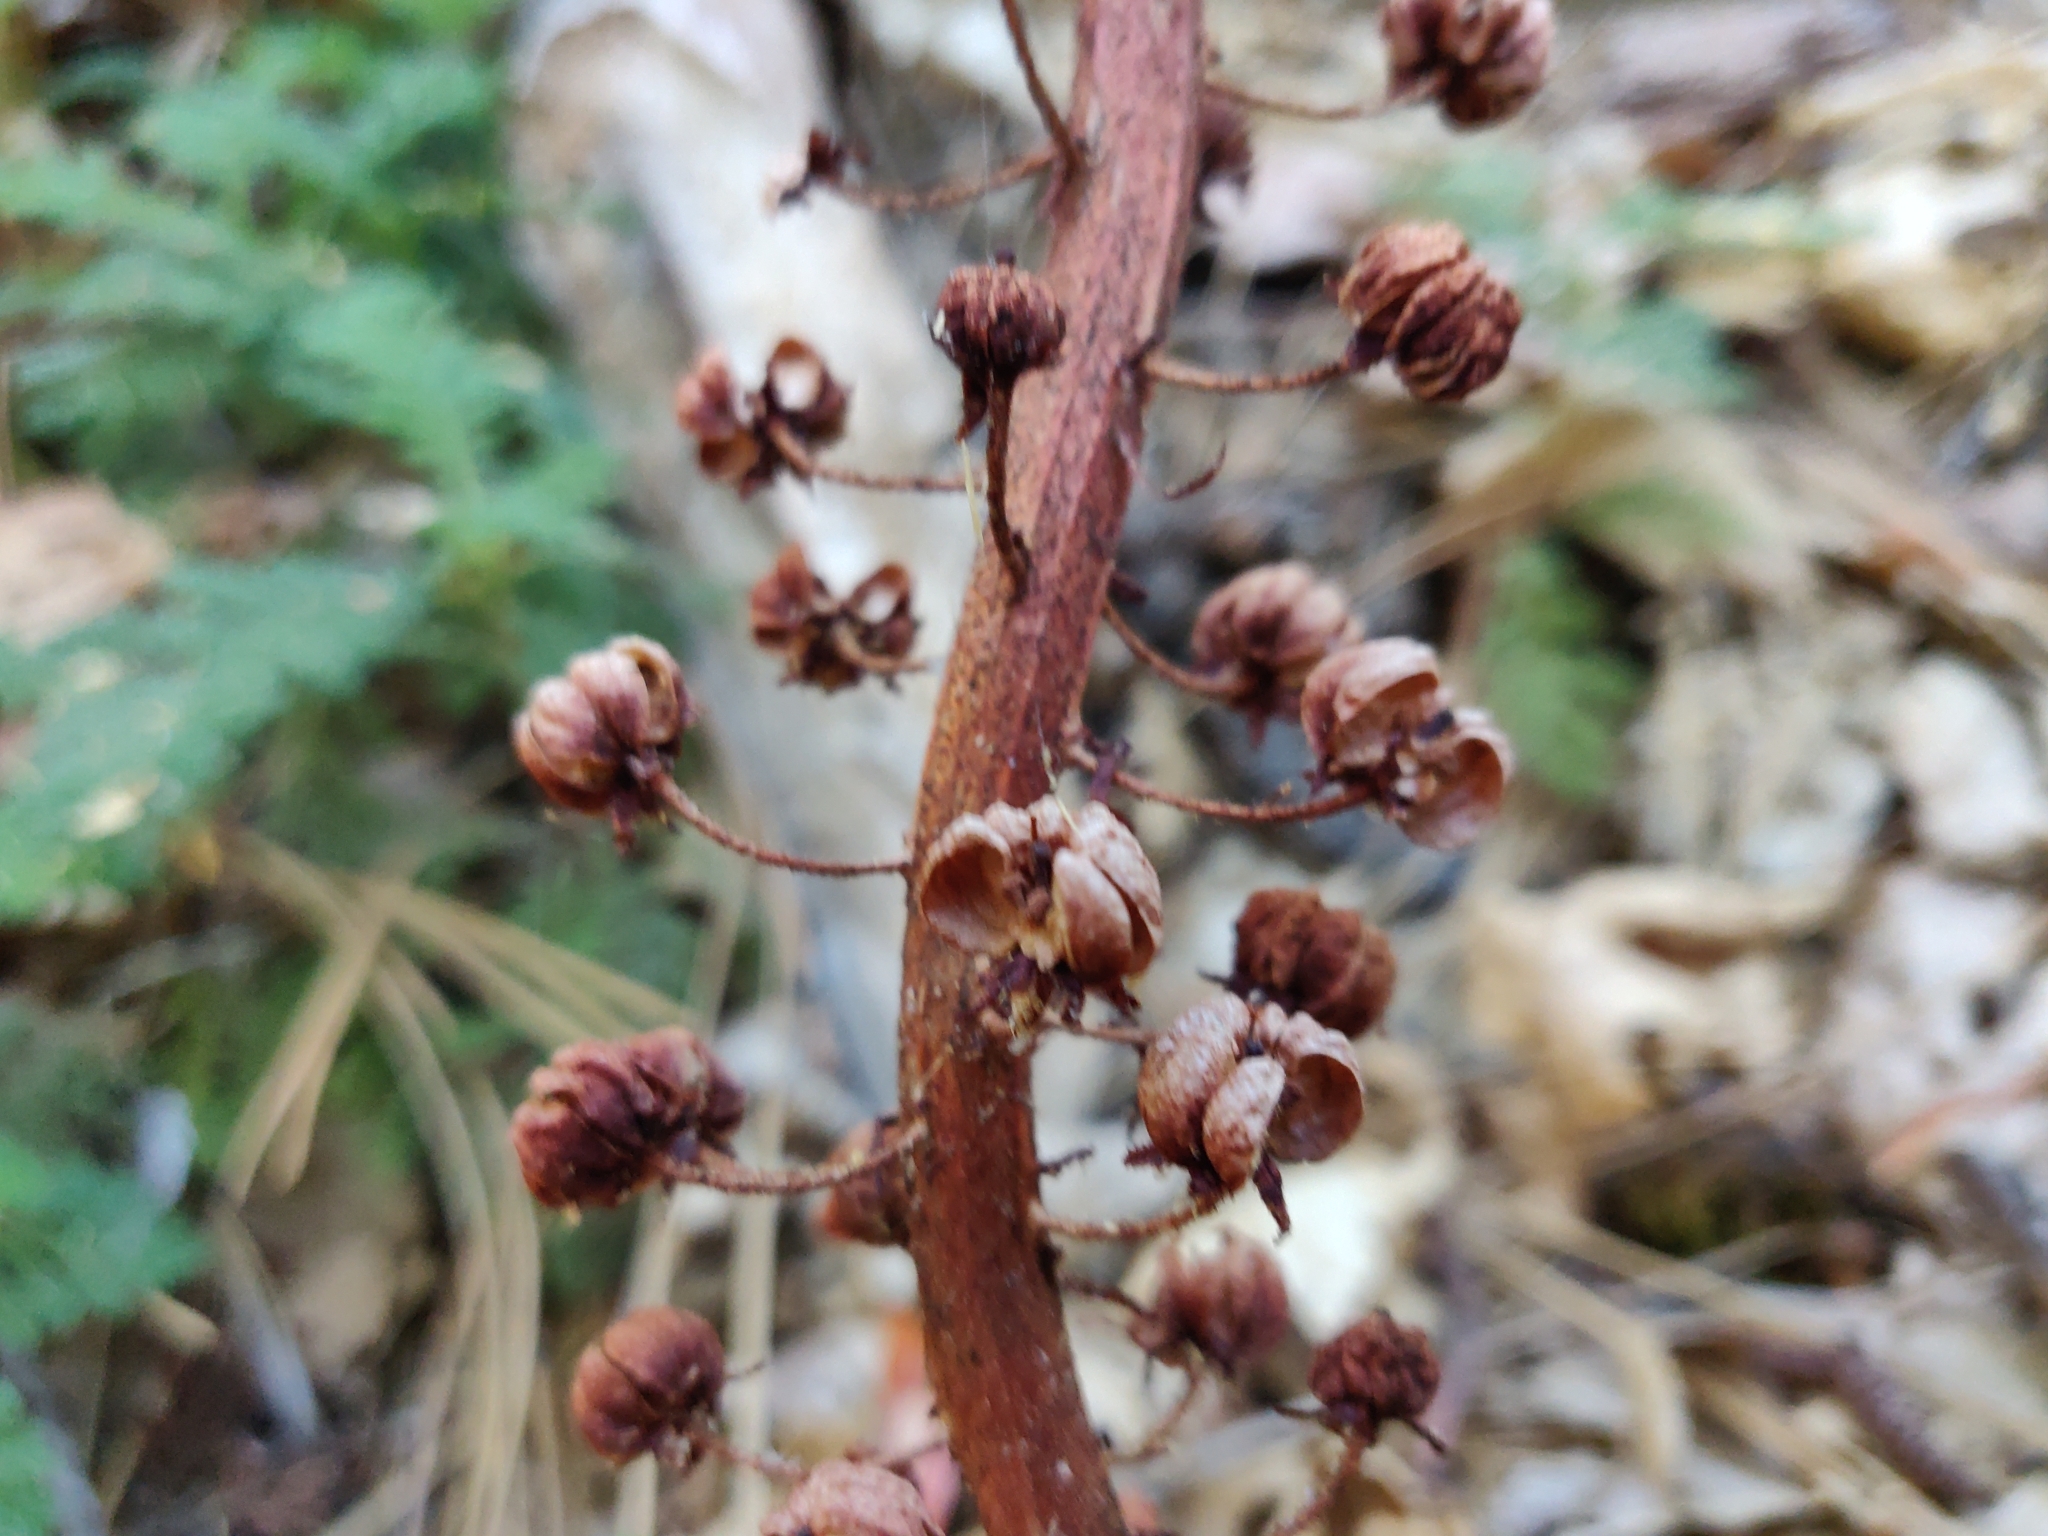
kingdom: Plantae
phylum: Tracheophyta
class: Magnoliopsida
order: Ericales
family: Ericaceae
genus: Pterospora
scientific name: Pterospora andromedea
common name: Giant bird's-nest
